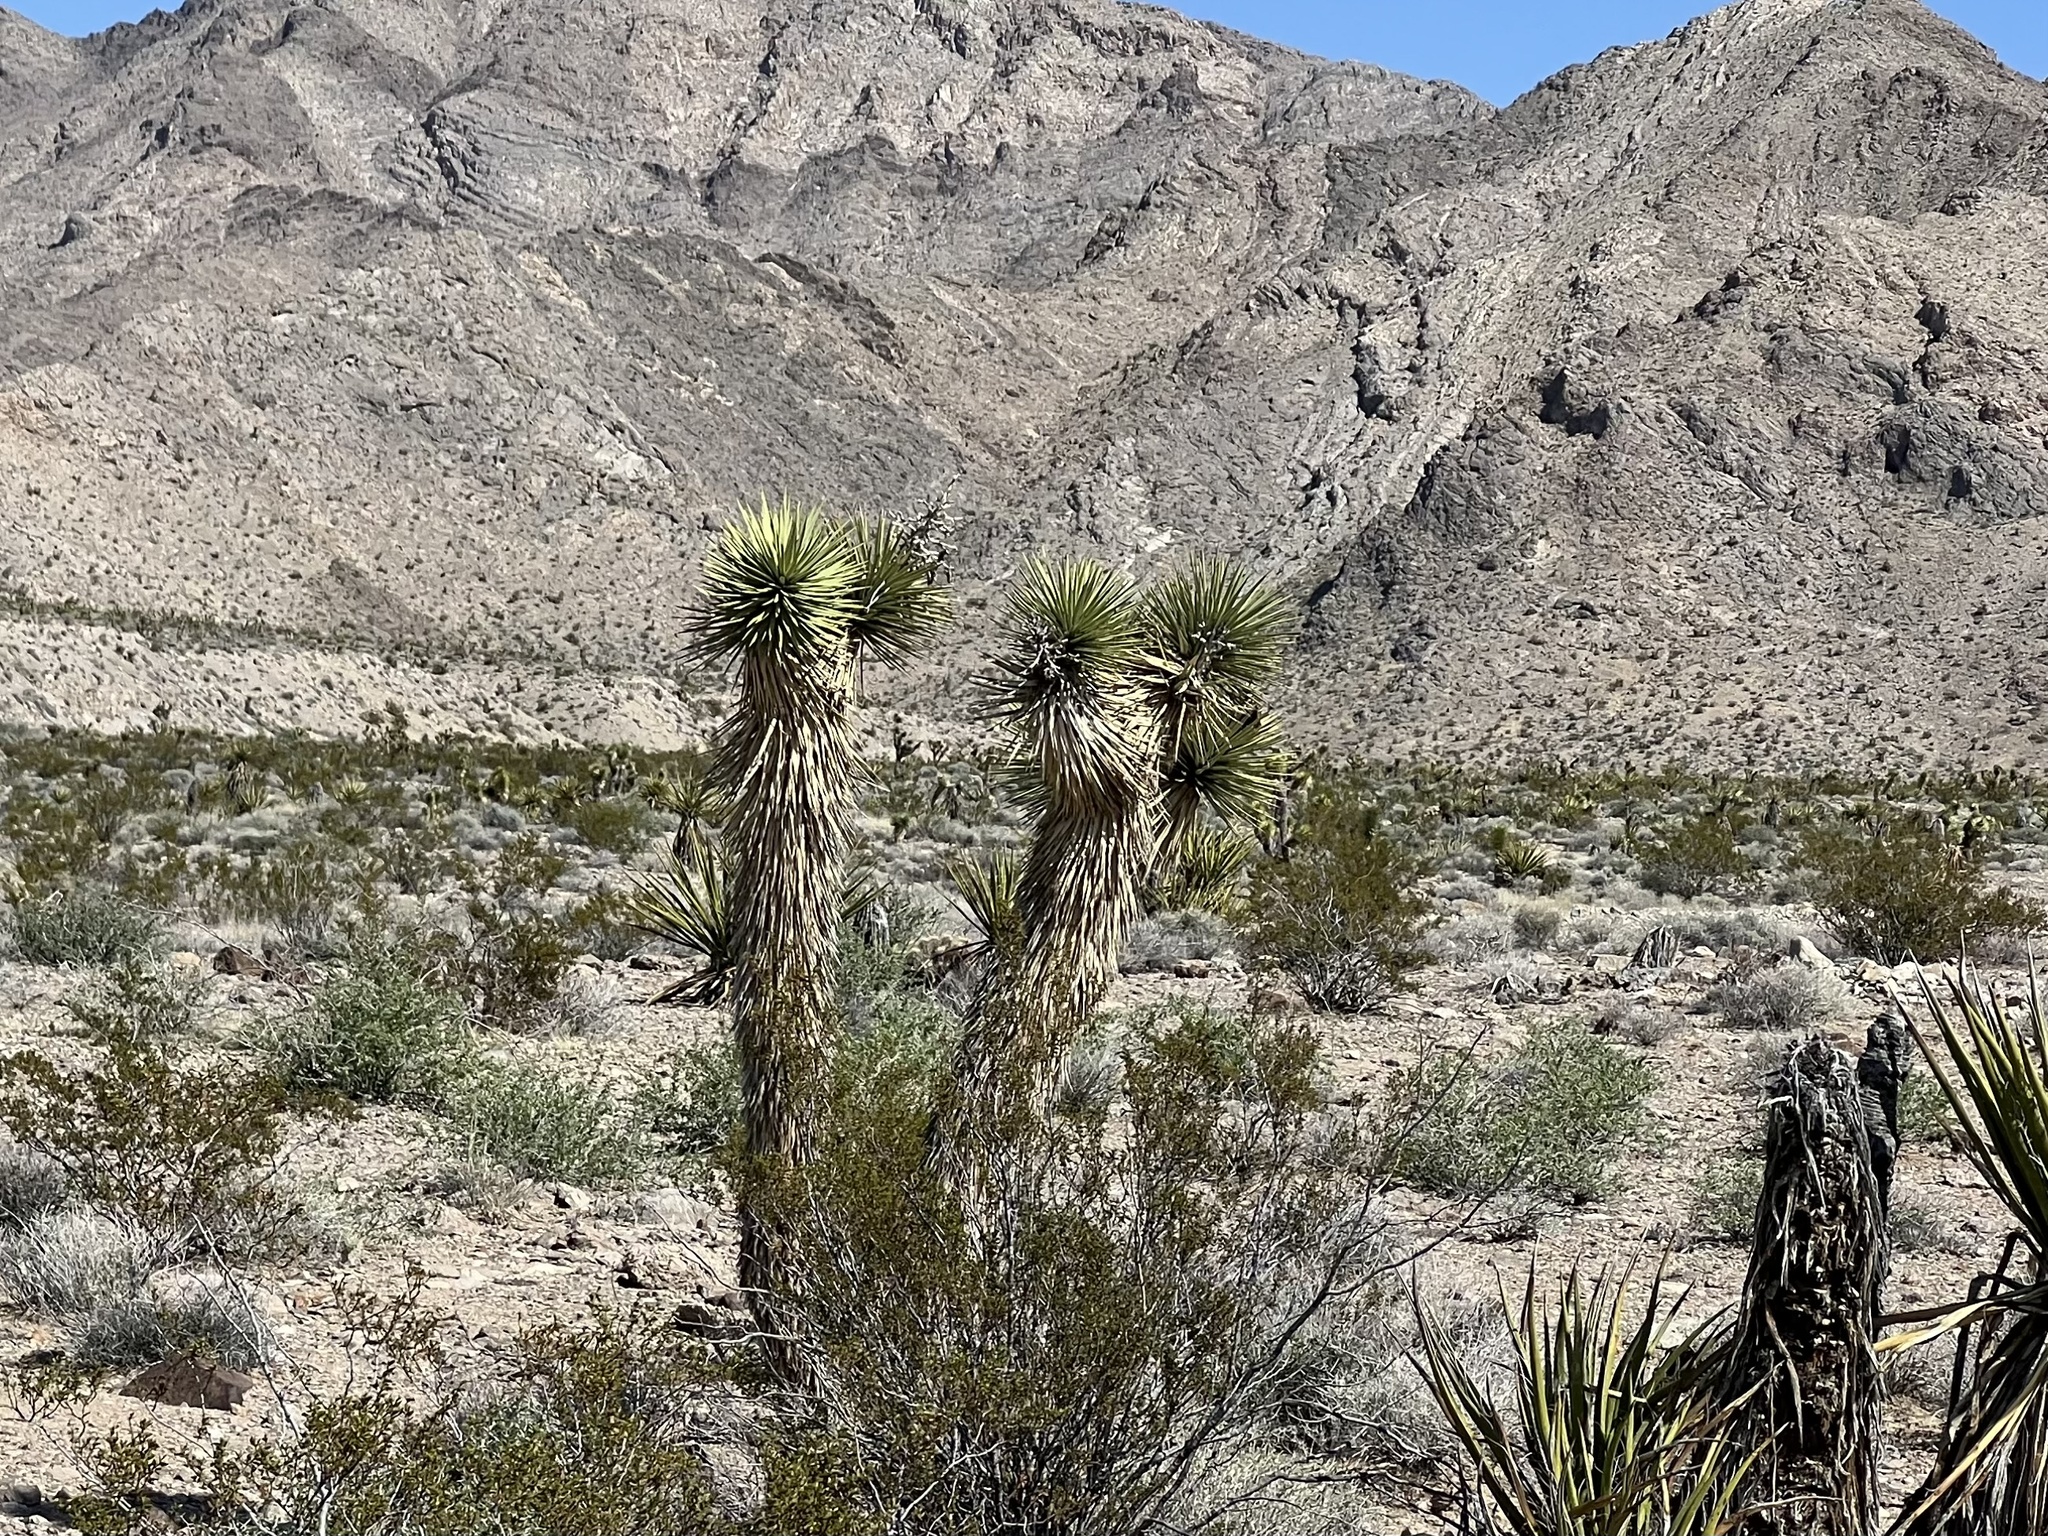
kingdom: Plantae
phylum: Tracheophyta
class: Liliopsida
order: Asparagales
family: Asparagaceae
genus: Yucca
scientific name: Yucca brevifolia
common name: Joshua tree
